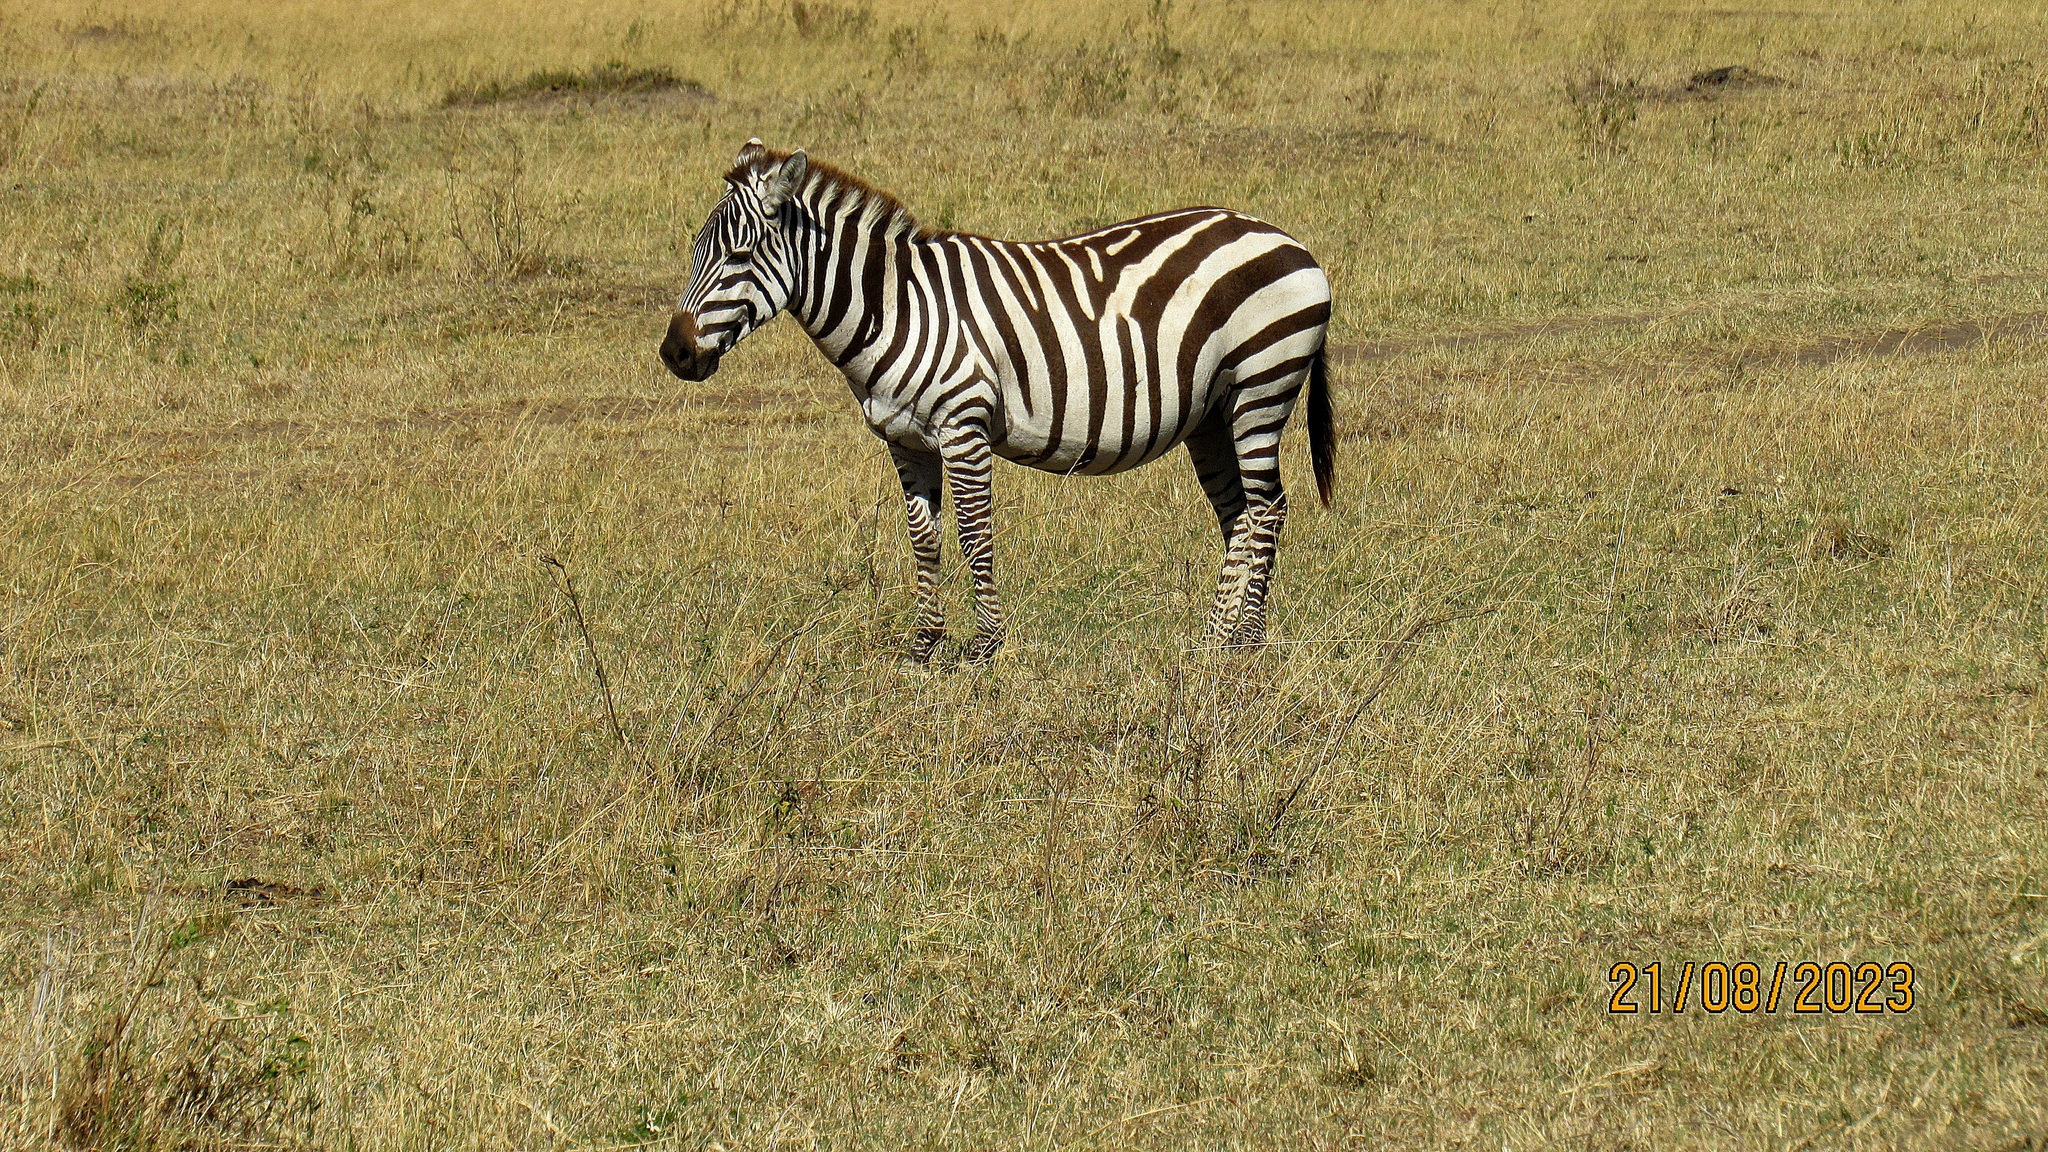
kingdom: Animalia
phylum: Chordata
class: Mammalia
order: Perissodactyla
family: Equidae
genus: Equus
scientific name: Equus quagga
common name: Plains zebra
